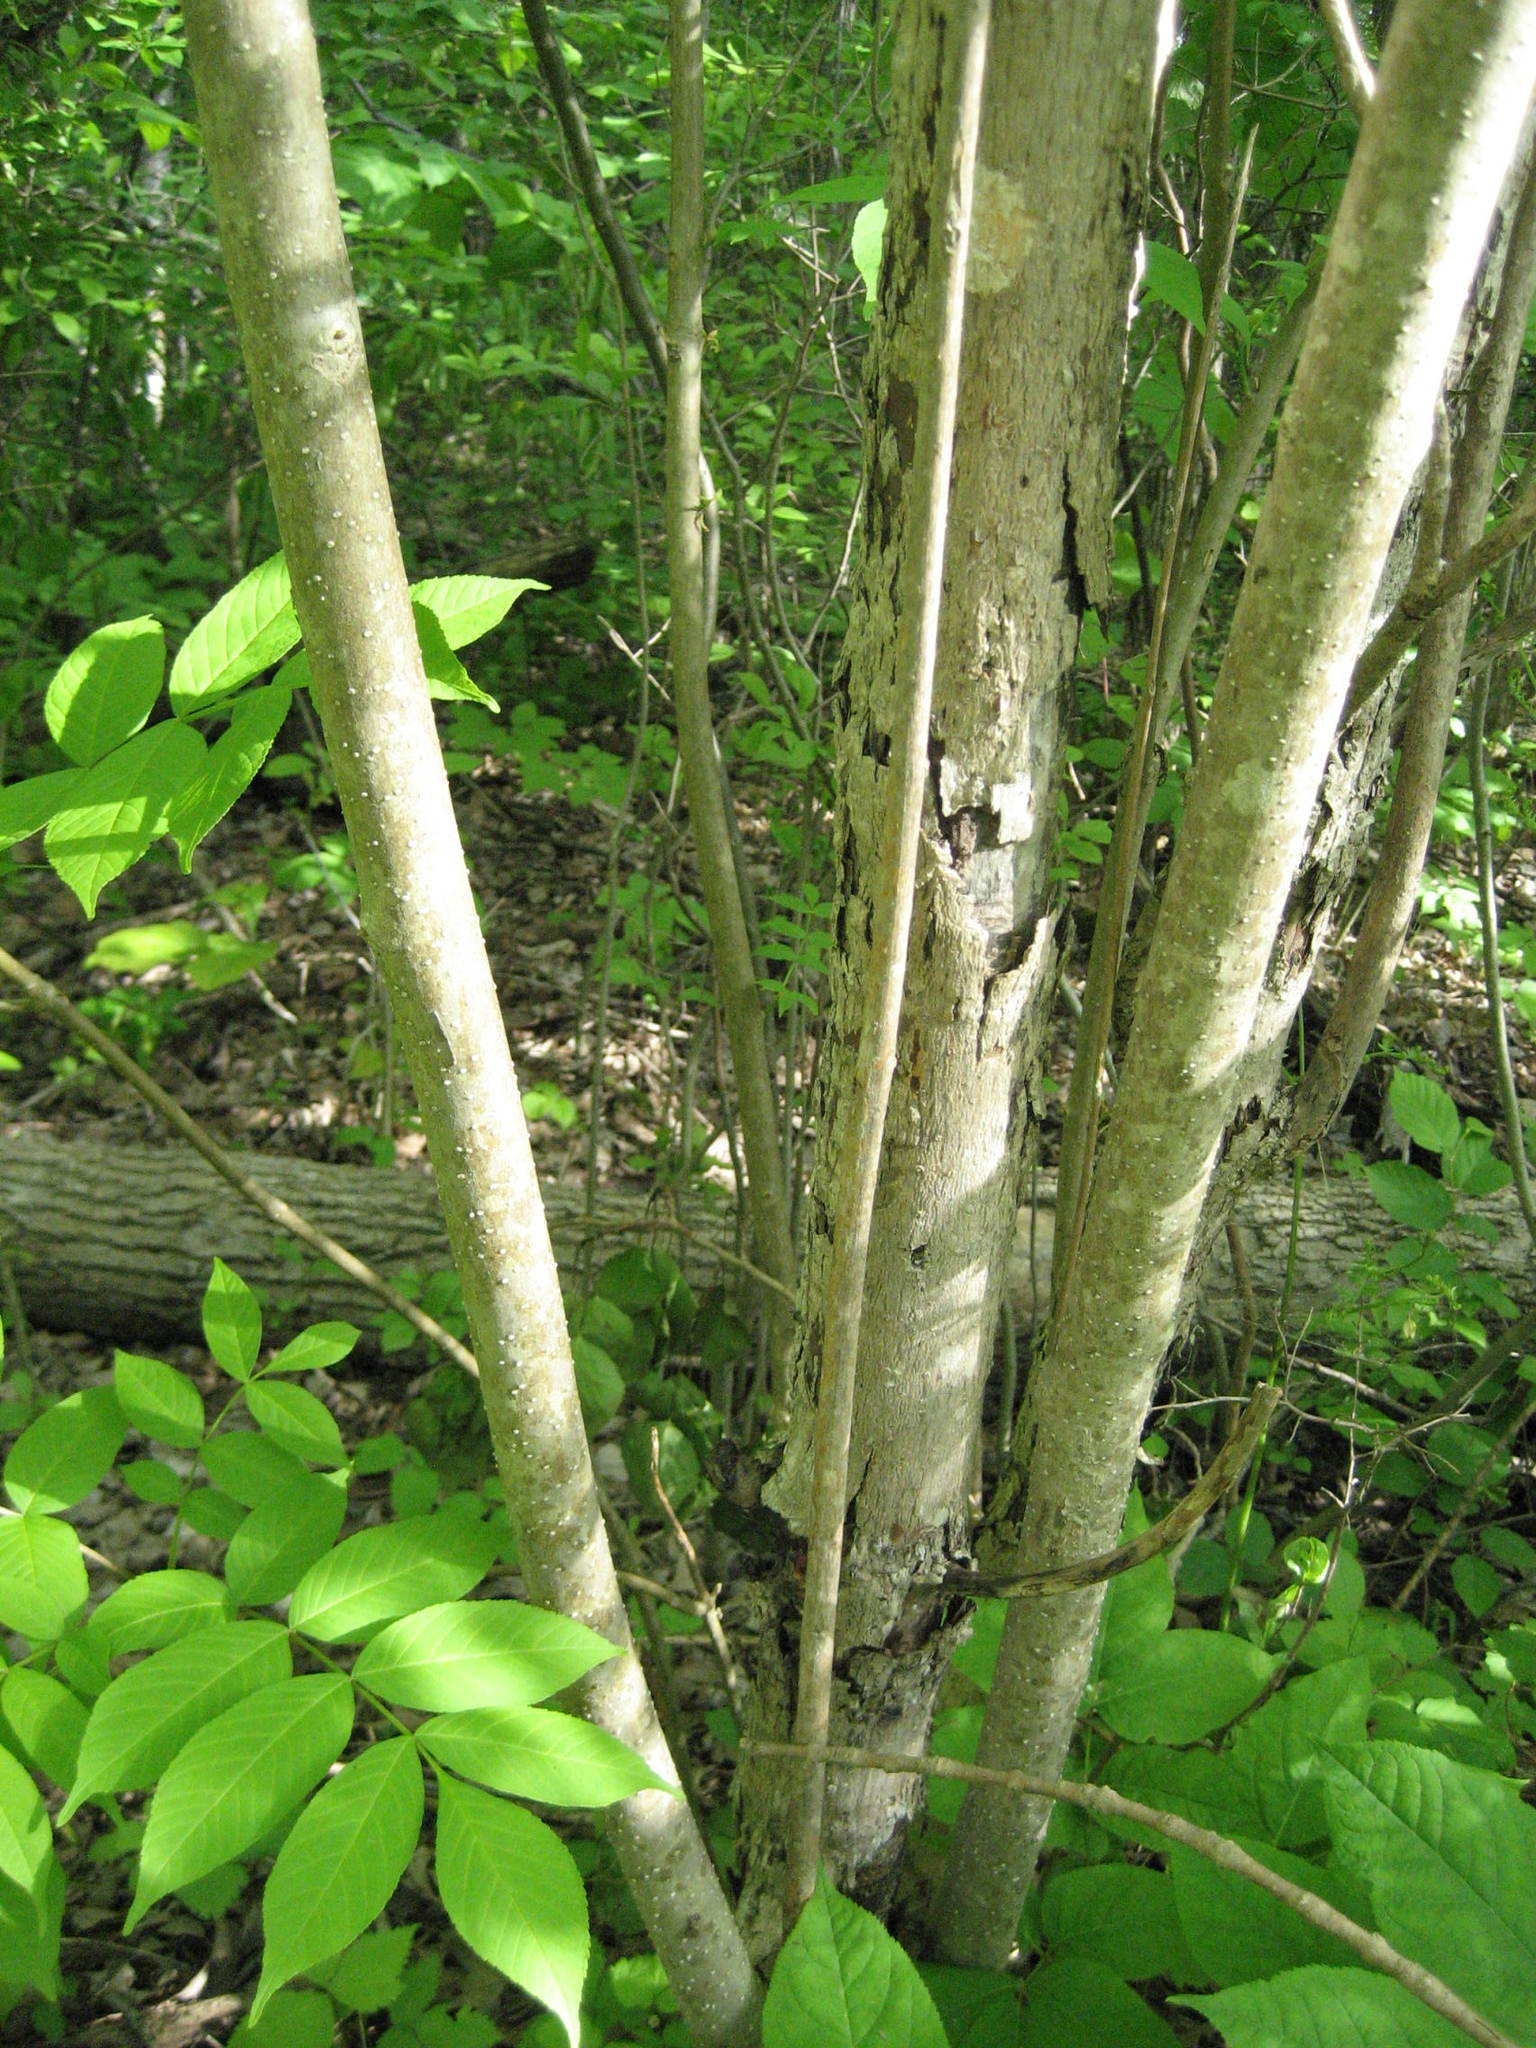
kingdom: Plantae
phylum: Tracheophyta
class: Magnoliopsida
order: Lamiales
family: Oleaceae
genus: Fraxinus
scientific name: Fraxinus nigra
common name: Black ash
